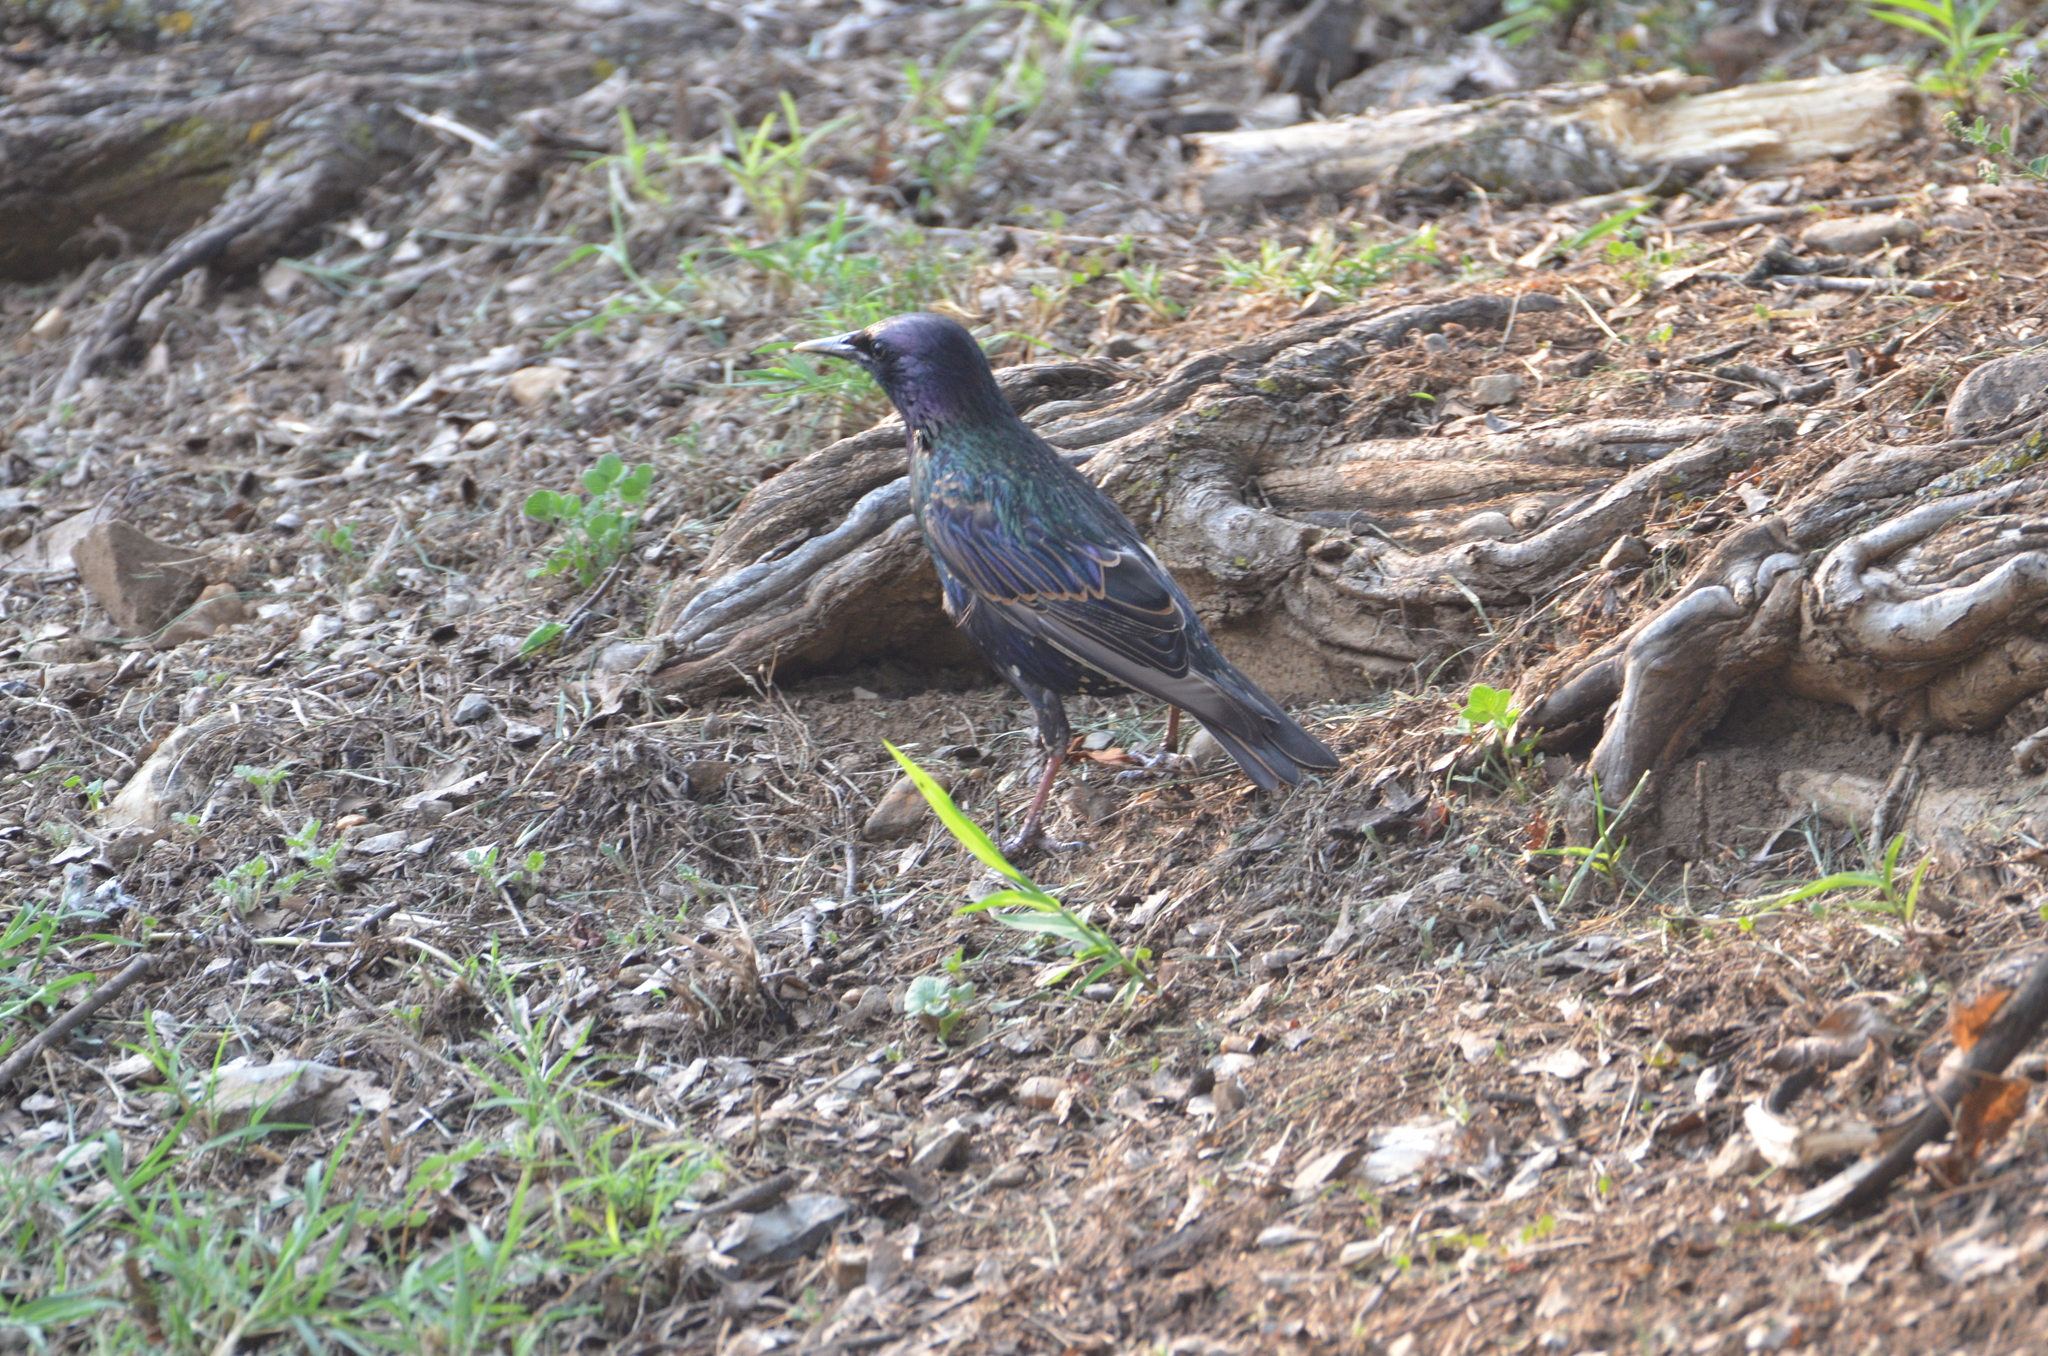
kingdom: Animalia
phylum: Chordata
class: Aves
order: Passeriformes
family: Sturnidae
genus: Sturnus
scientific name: Sturnus vulgaris
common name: Common starling
